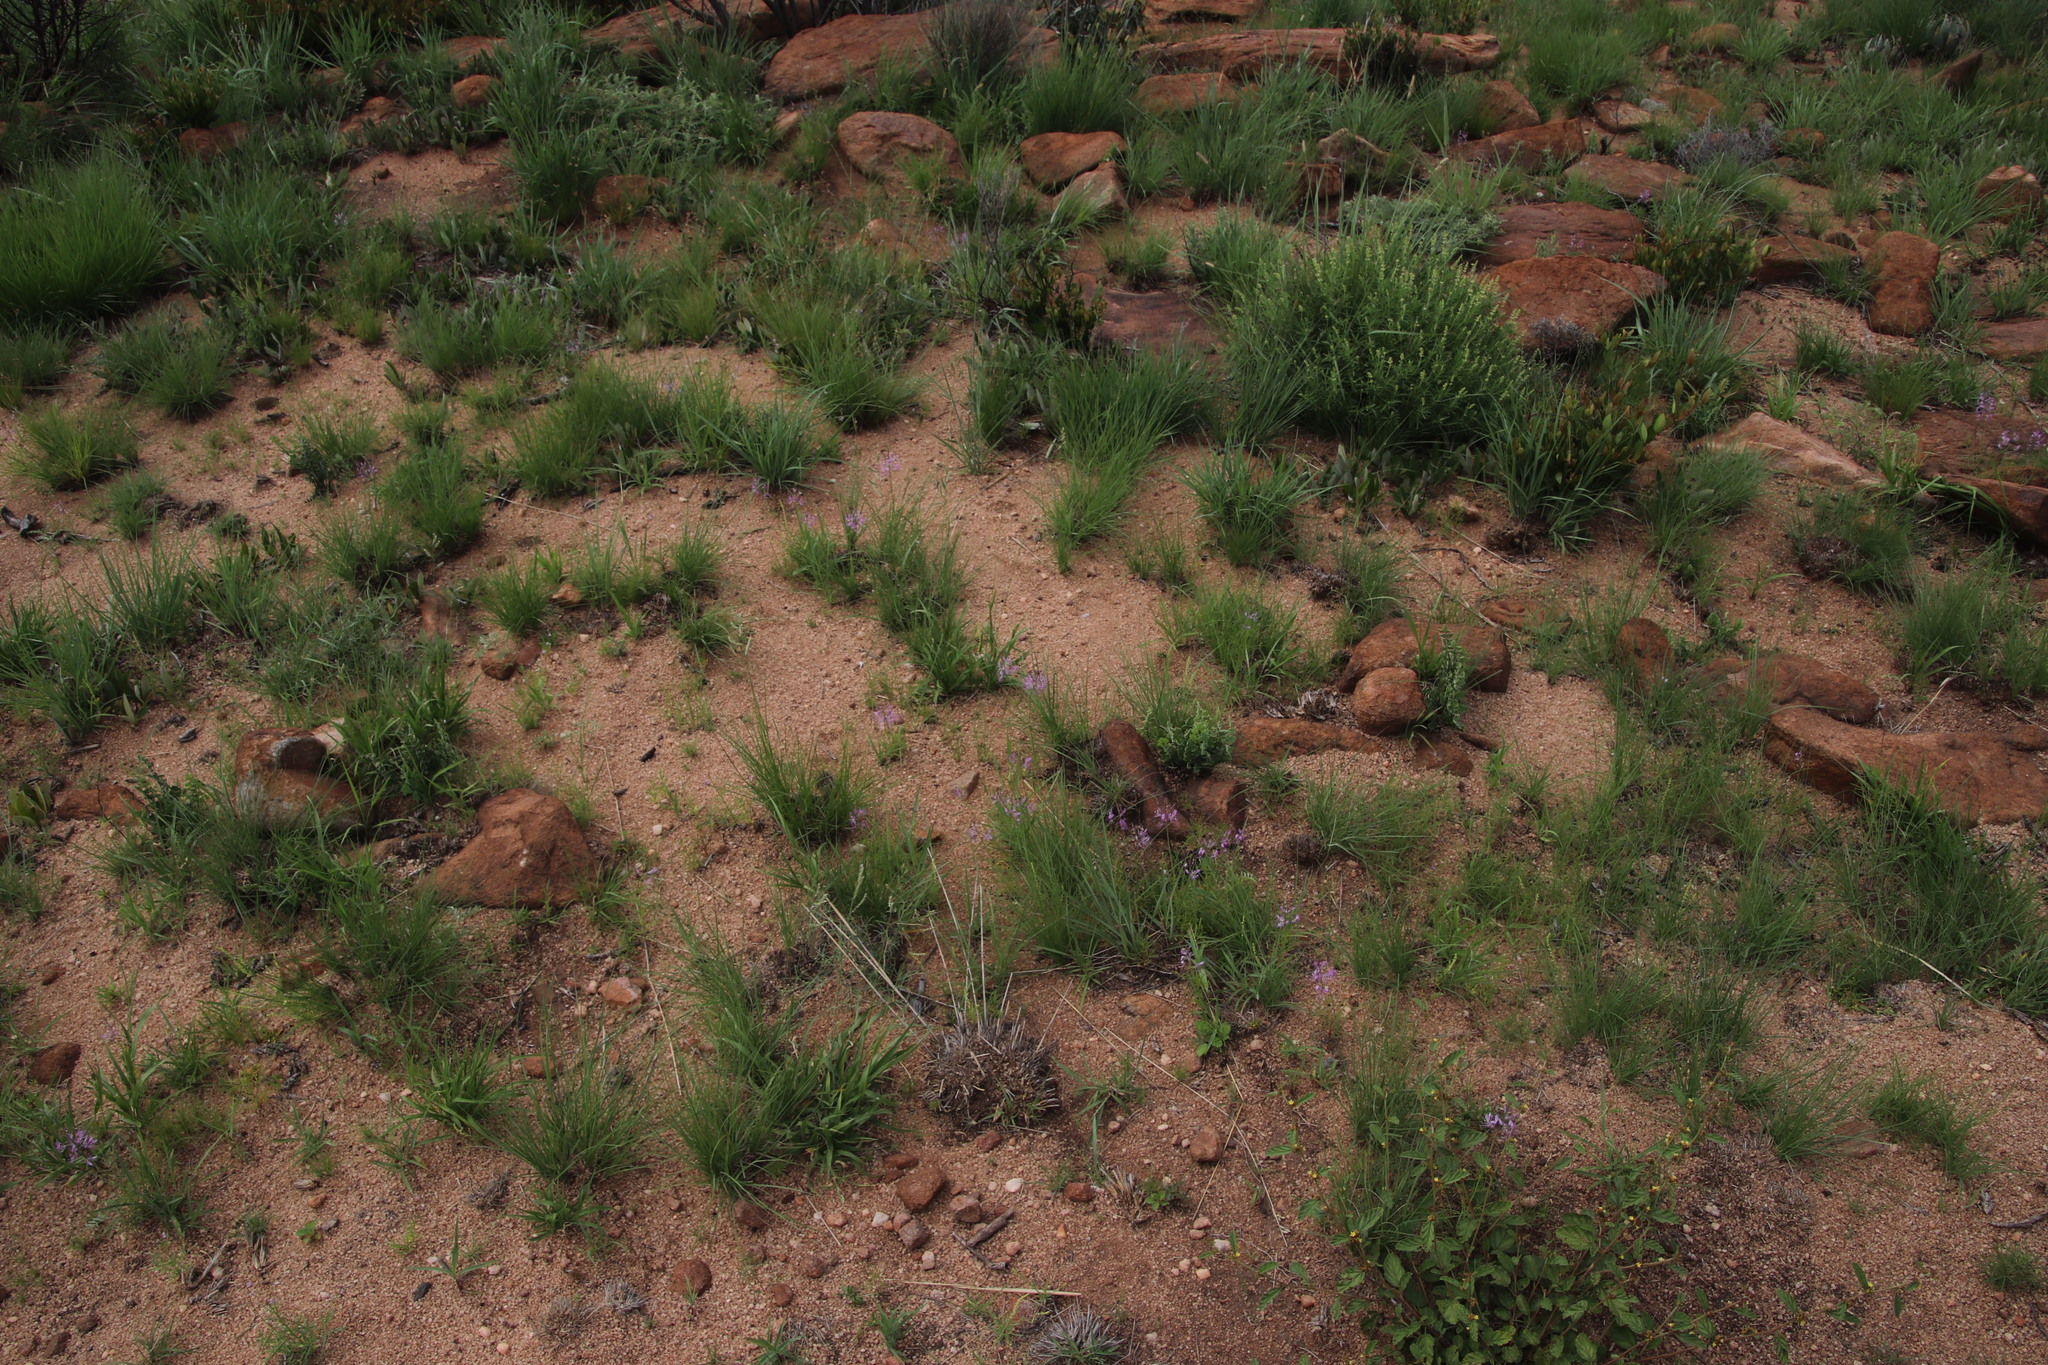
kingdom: Plantae
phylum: Tracheophyta
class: Magnoliopsida
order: Brassicales
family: Cleomaceae
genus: Sieruela
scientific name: Sieruela maculata
